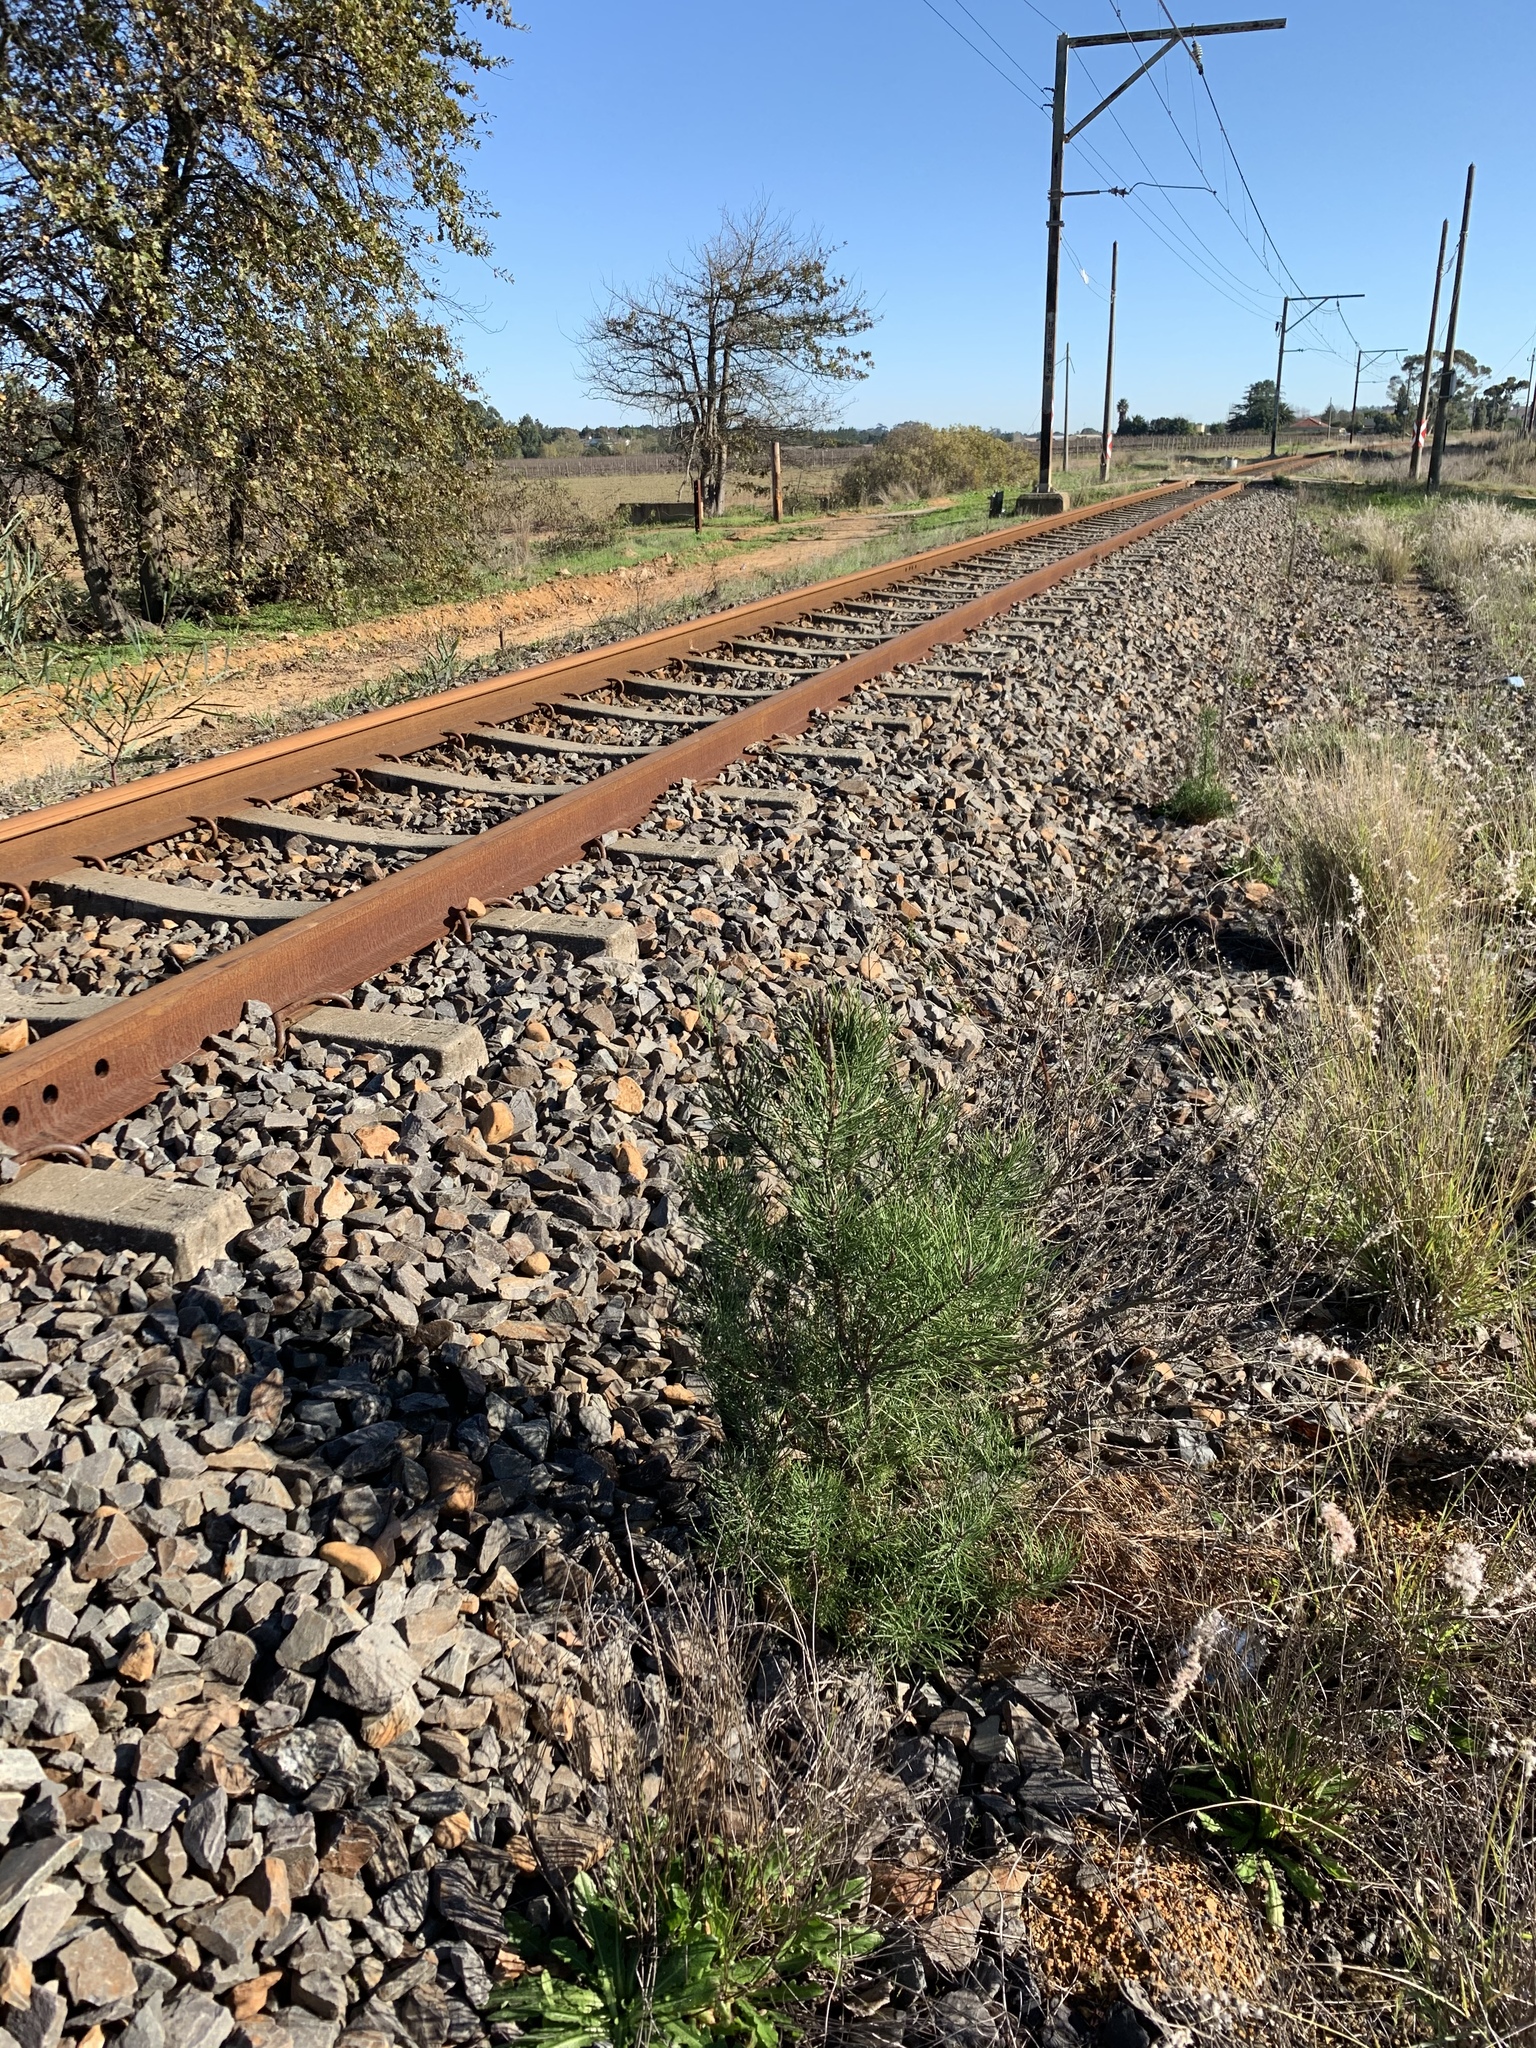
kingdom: Plantae
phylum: Tracheophyta
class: Pinopsida
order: Pinales
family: Pinaceae
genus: Pinus
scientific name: Pinus pinaster
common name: Maritime pine
